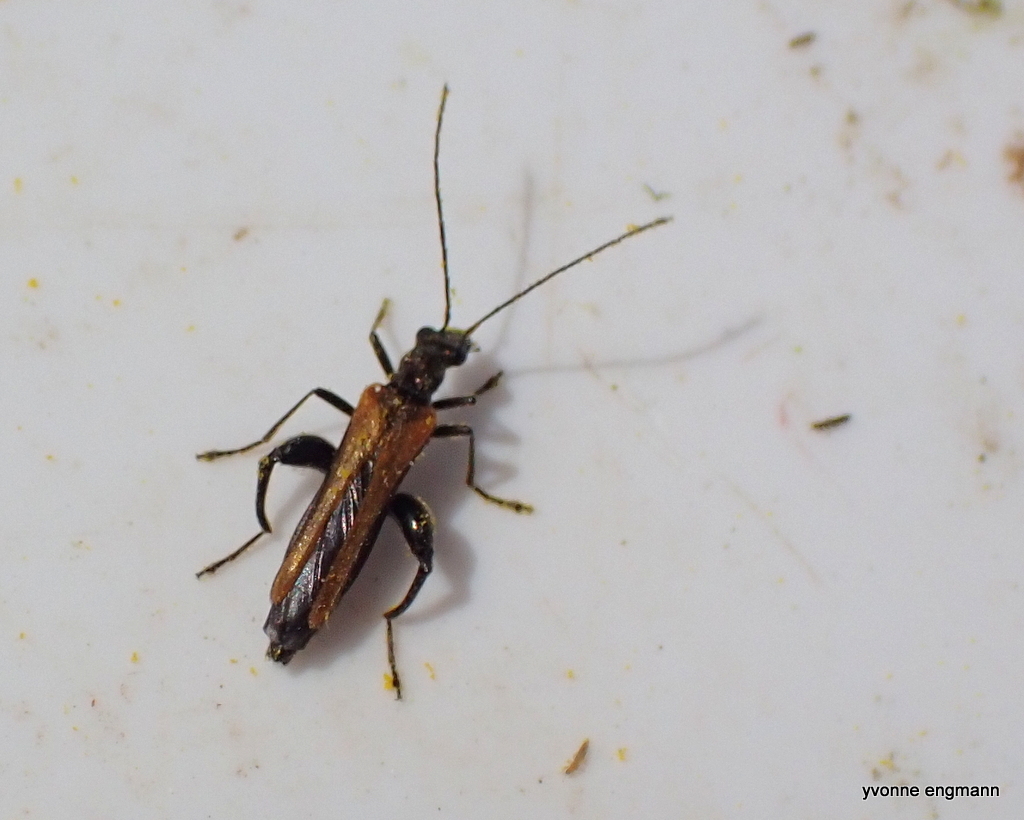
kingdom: Animalia
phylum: Arthropoda
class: Insecta
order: Coleoptera
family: Oedemeridae
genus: Oedemera
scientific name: Oedemera femorata
